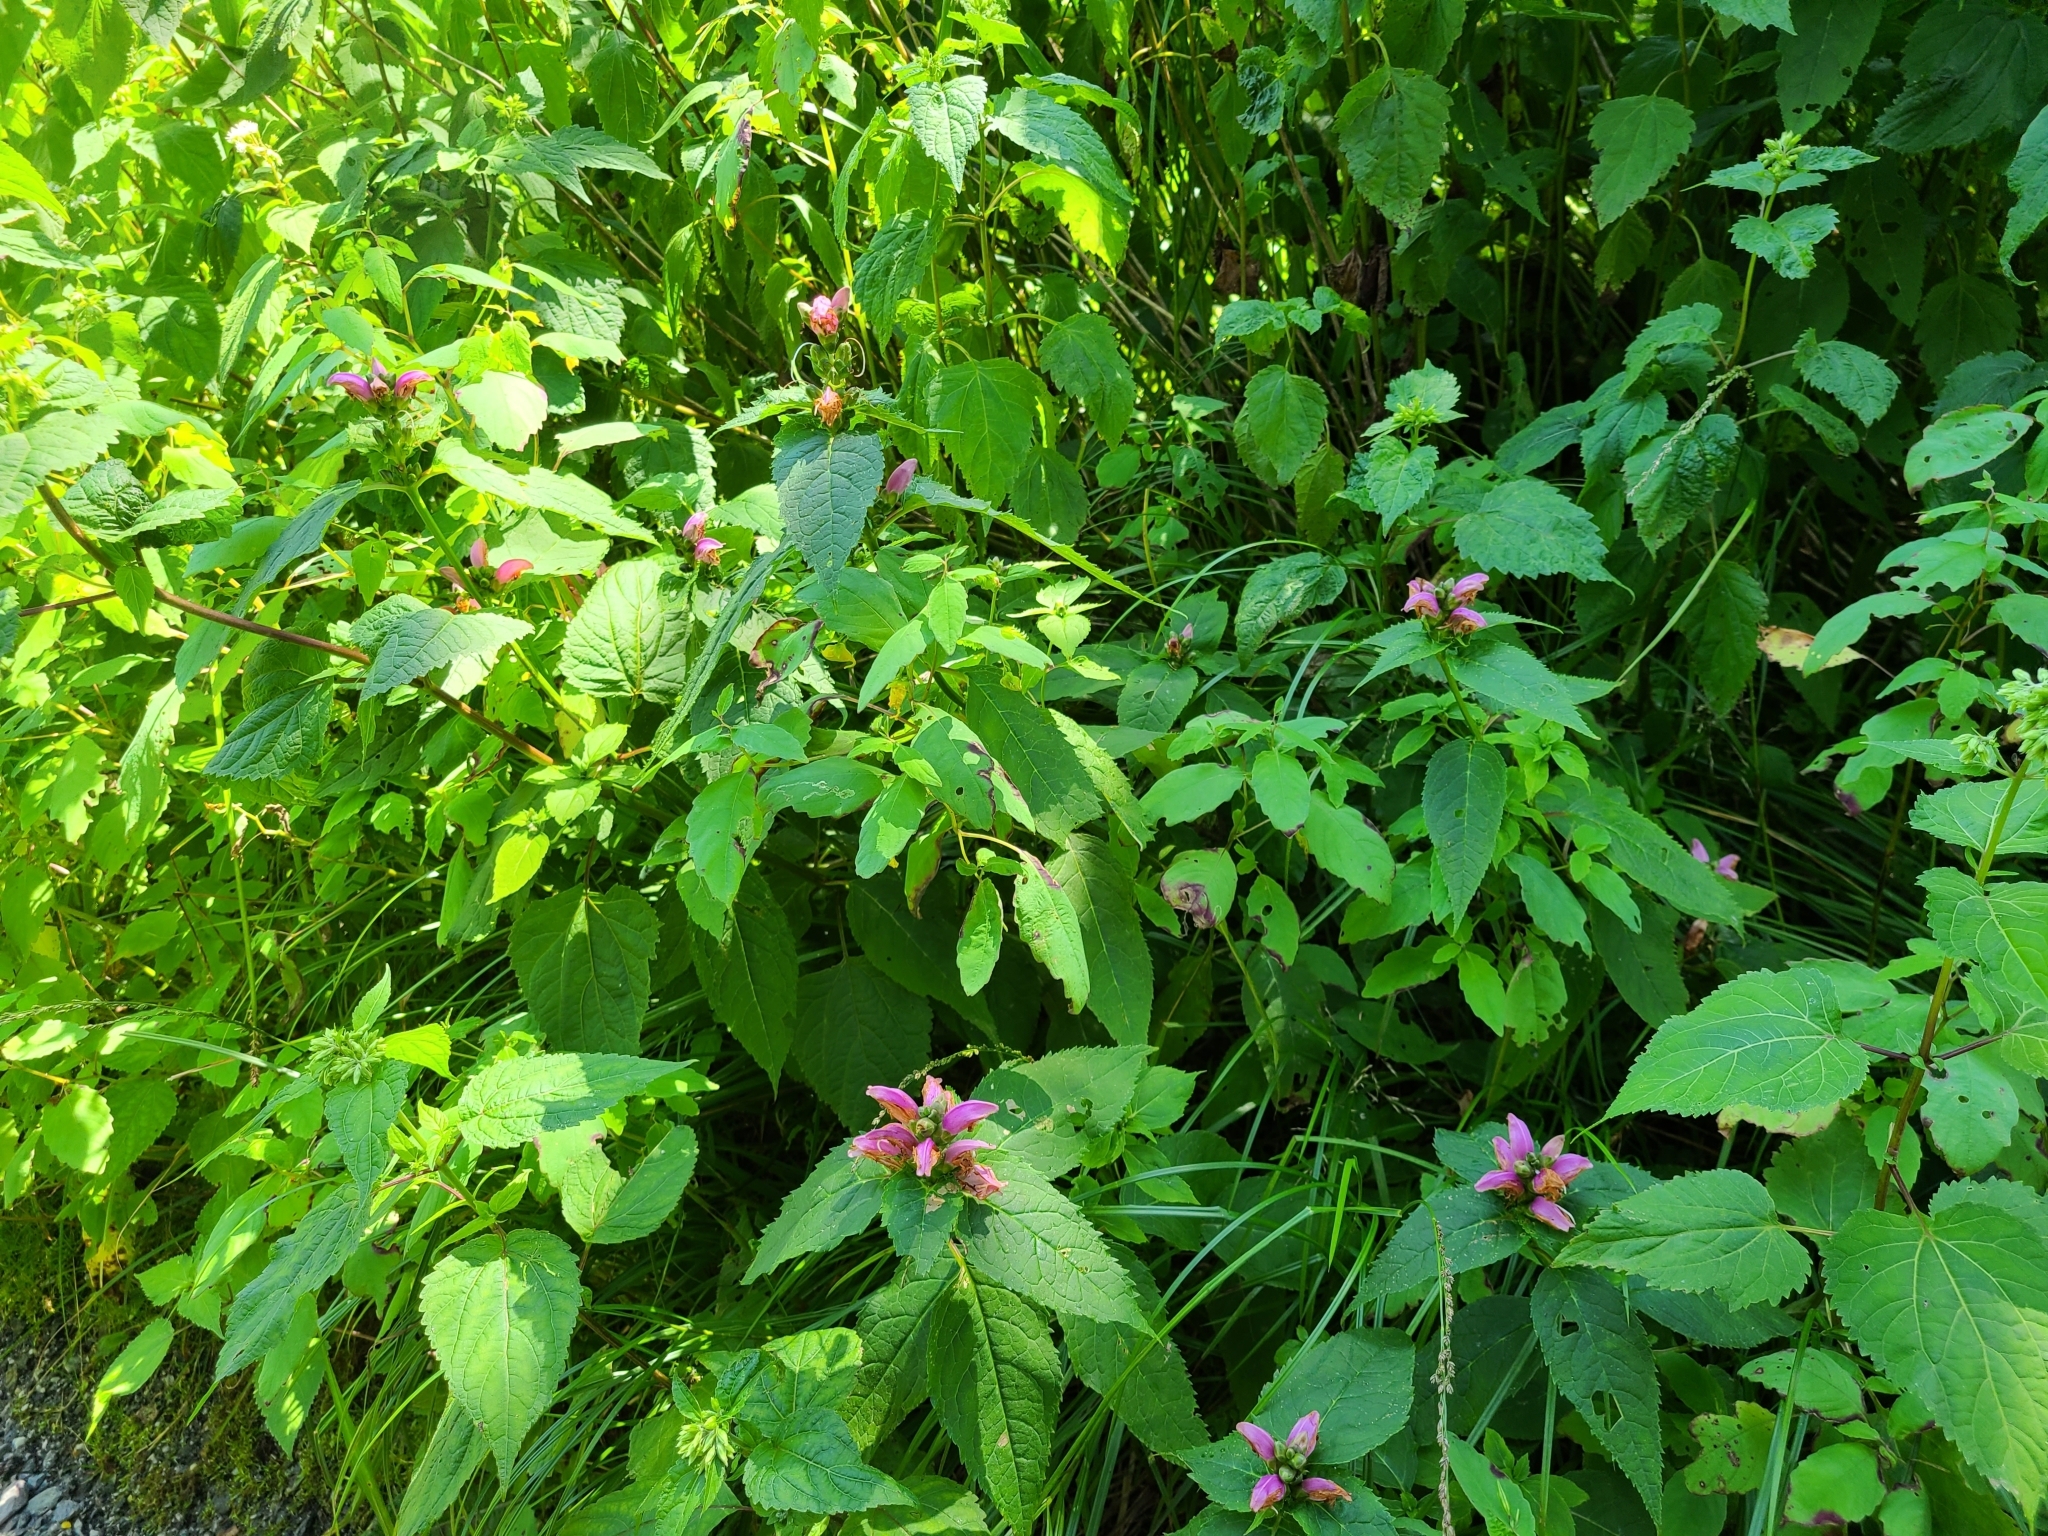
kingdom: Plantae
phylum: Tracheophyta
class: Magnoliopsida
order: Lamiales
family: Plantaginaceae
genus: Chelone
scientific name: Chelone lyonii
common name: Pink turtlehead
